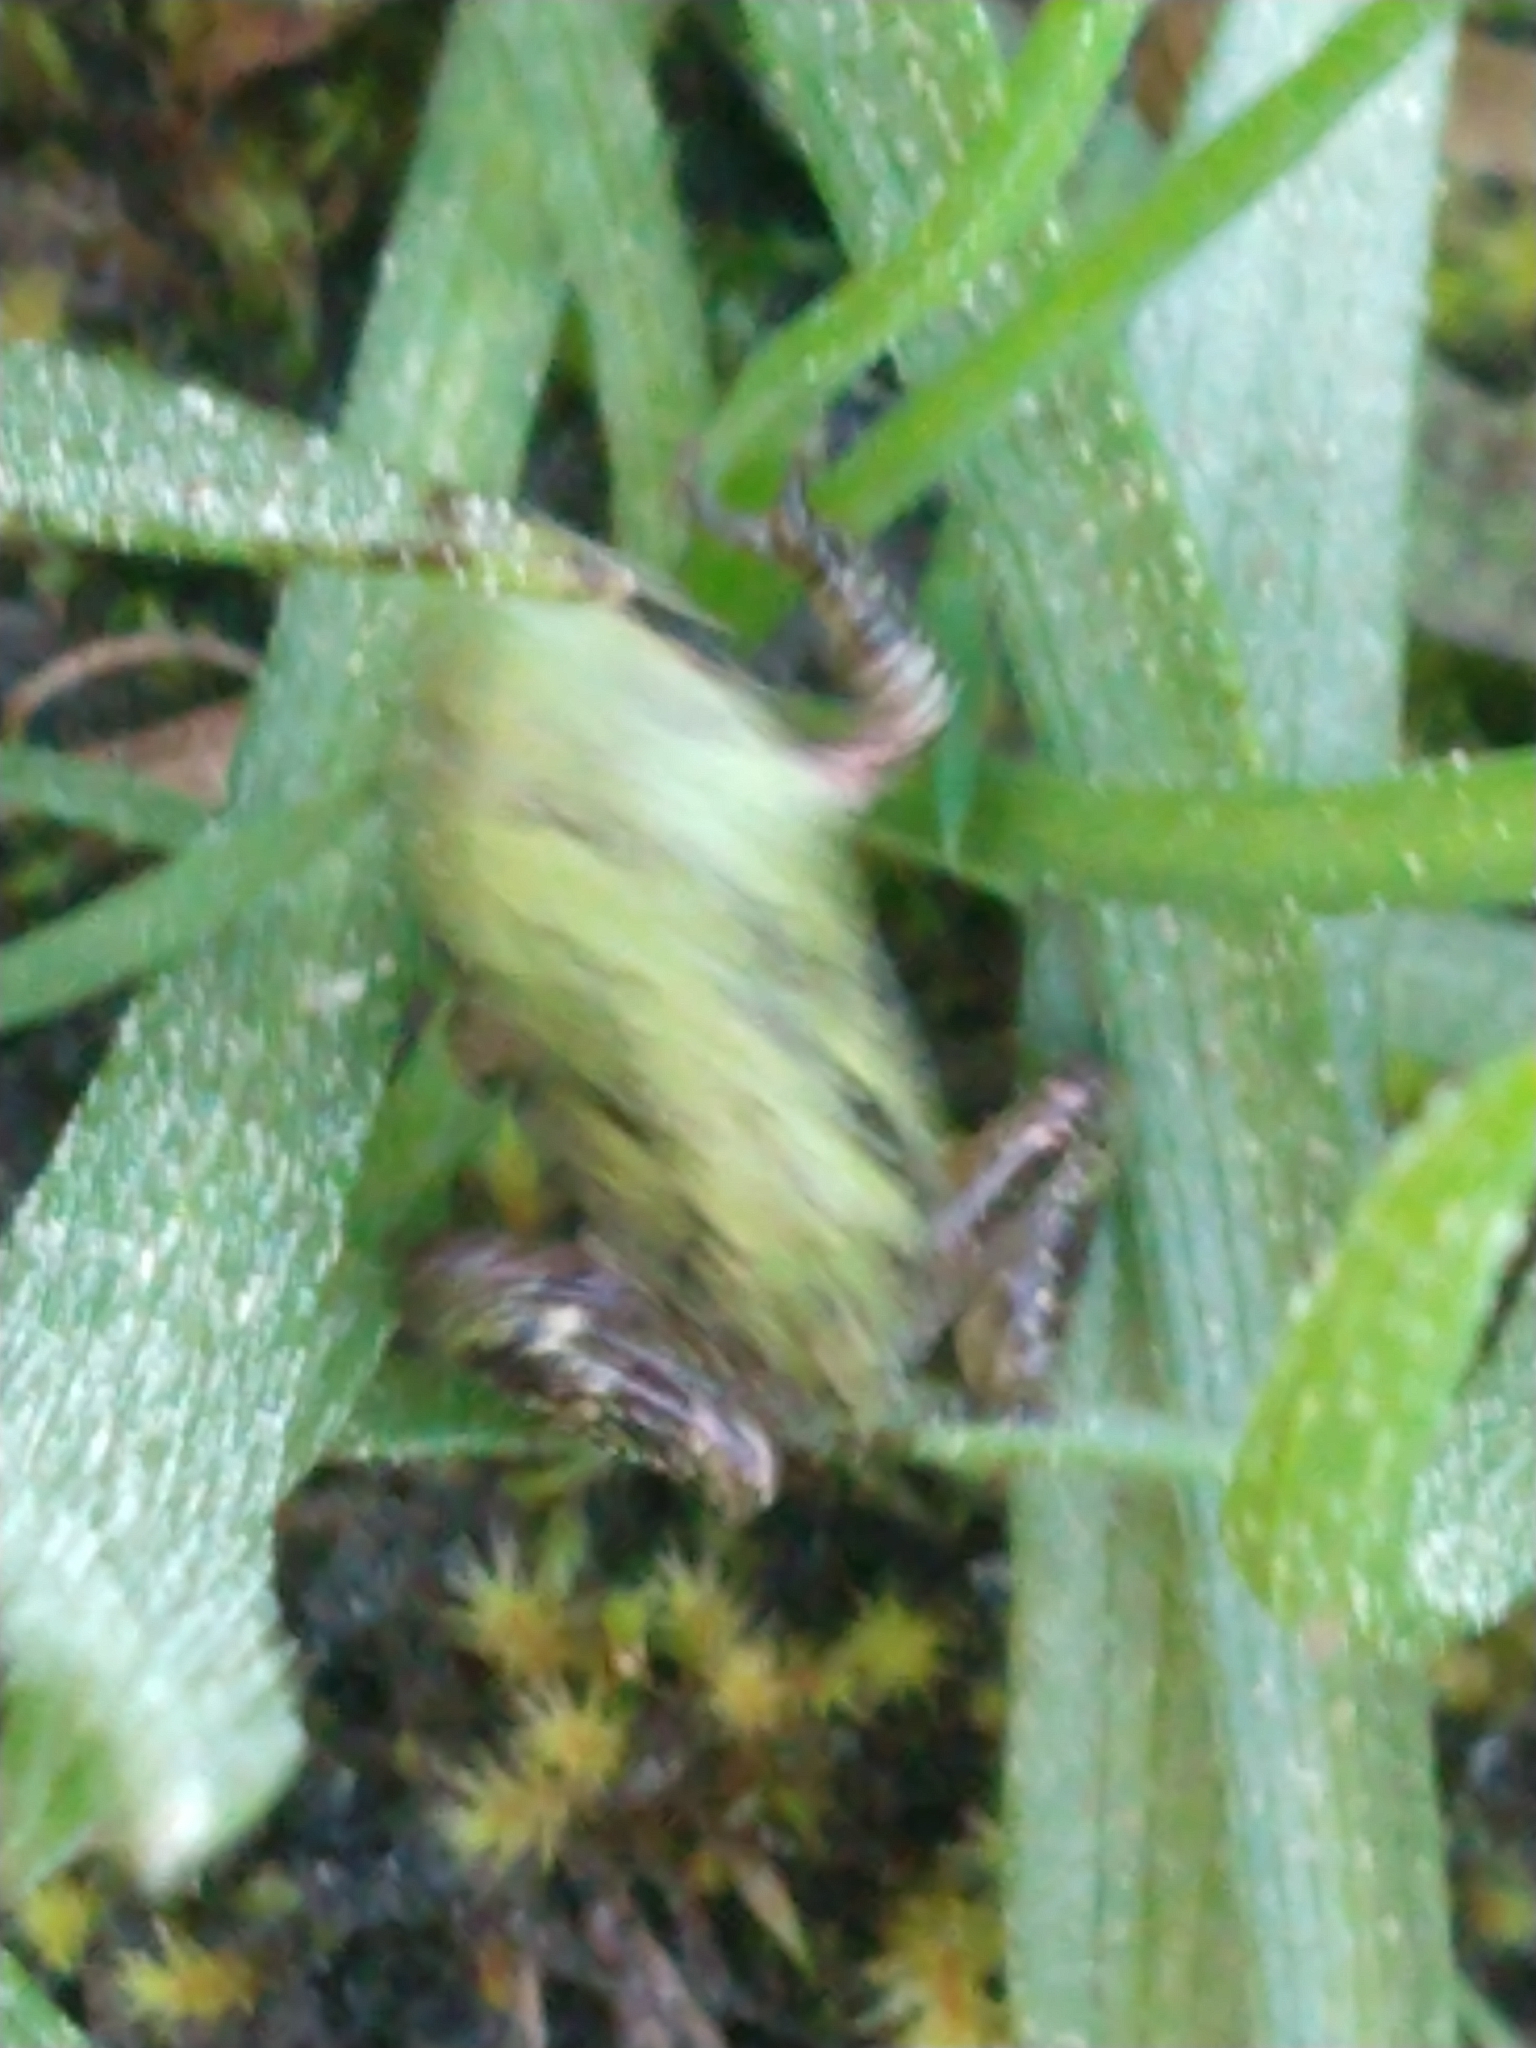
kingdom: Animalia
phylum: Chordata
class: Amphibia
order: Anura
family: Hylidae
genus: Pseudacris
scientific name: Pseudacris regilla
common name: Pacific chorus frog
